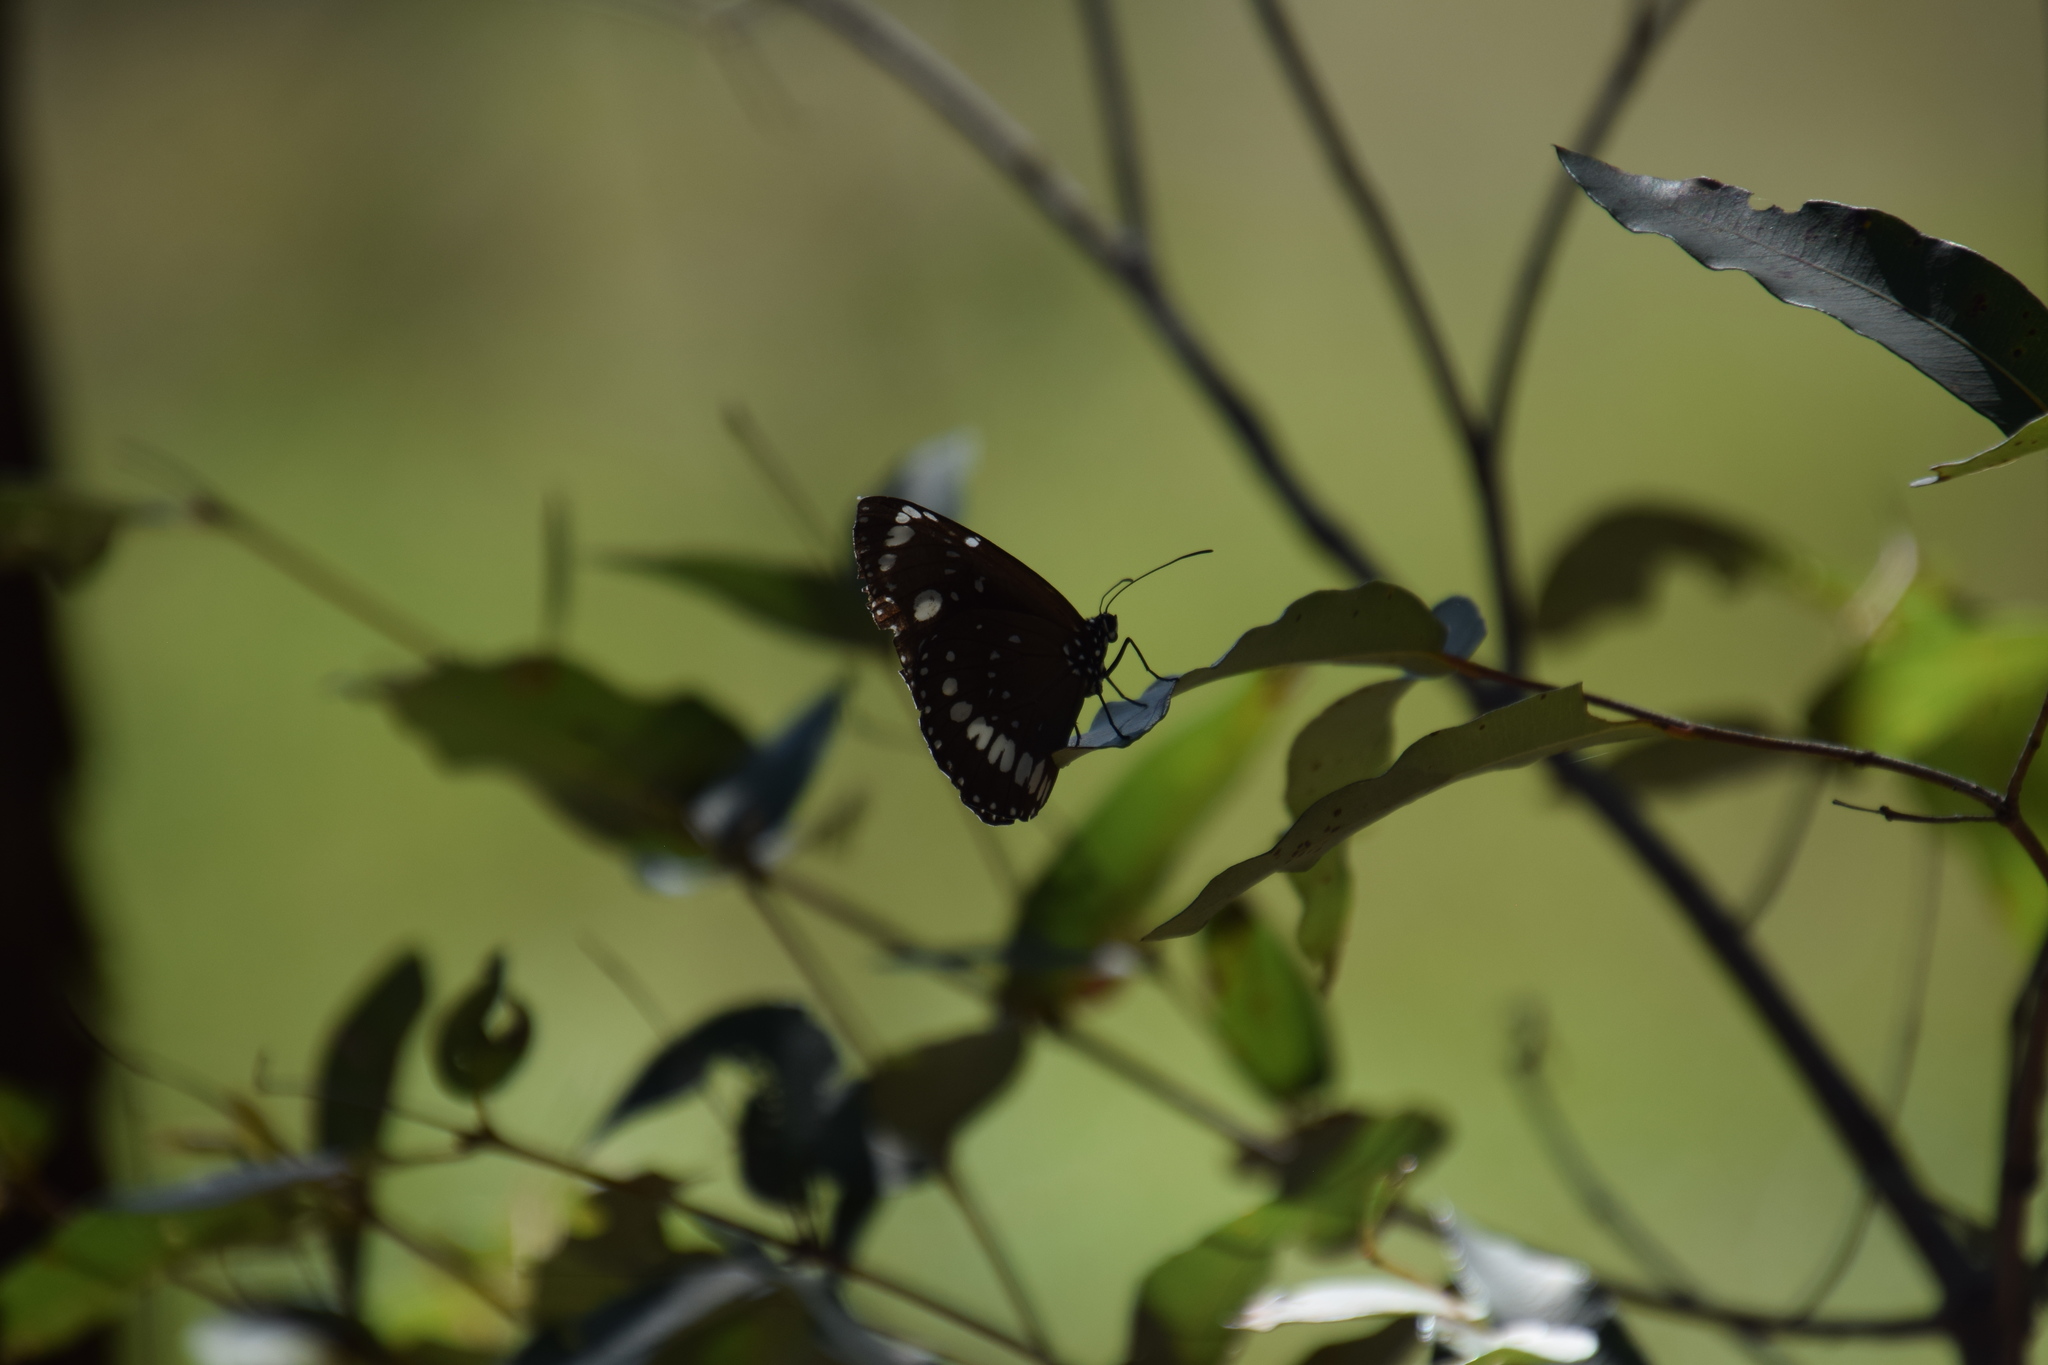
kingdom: Animalia
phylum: Arthropoda
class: Insecta
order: Lepidoptera
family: Nymphalidae
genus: Euploea
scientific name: Euploea core
